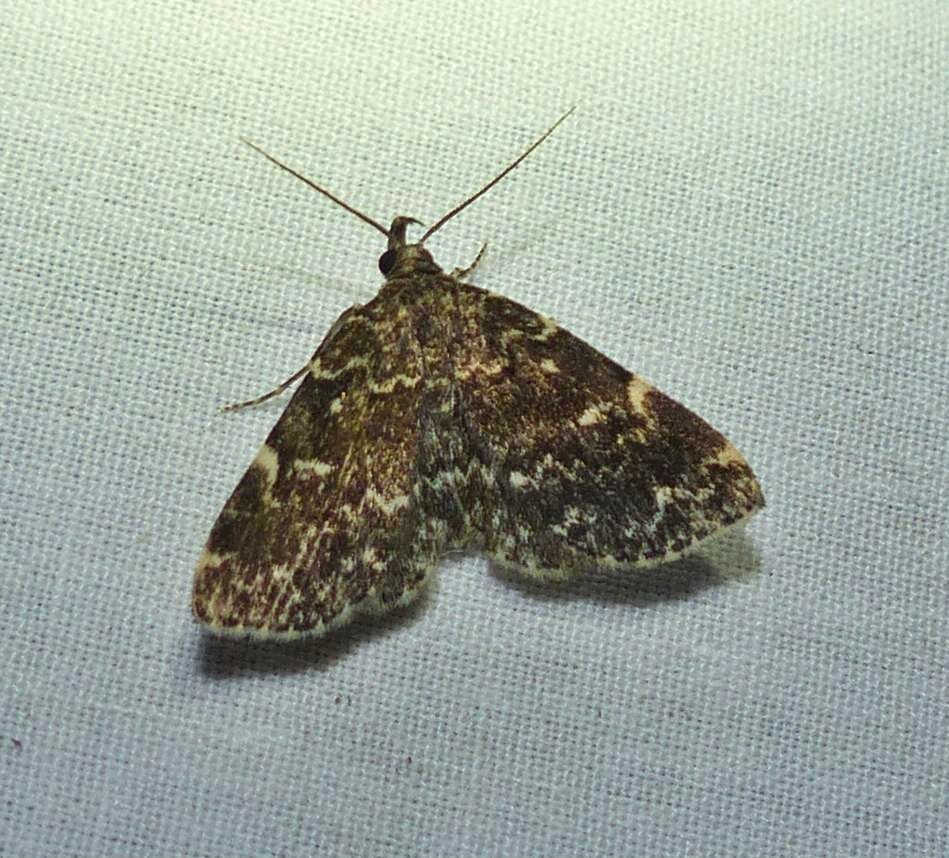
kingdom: Animalia
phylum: Arthropoda
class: Insecta
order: Lepidoptera
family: Erebidae
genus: Idia
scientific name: Idia scobialis
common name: Smoky idia moth
